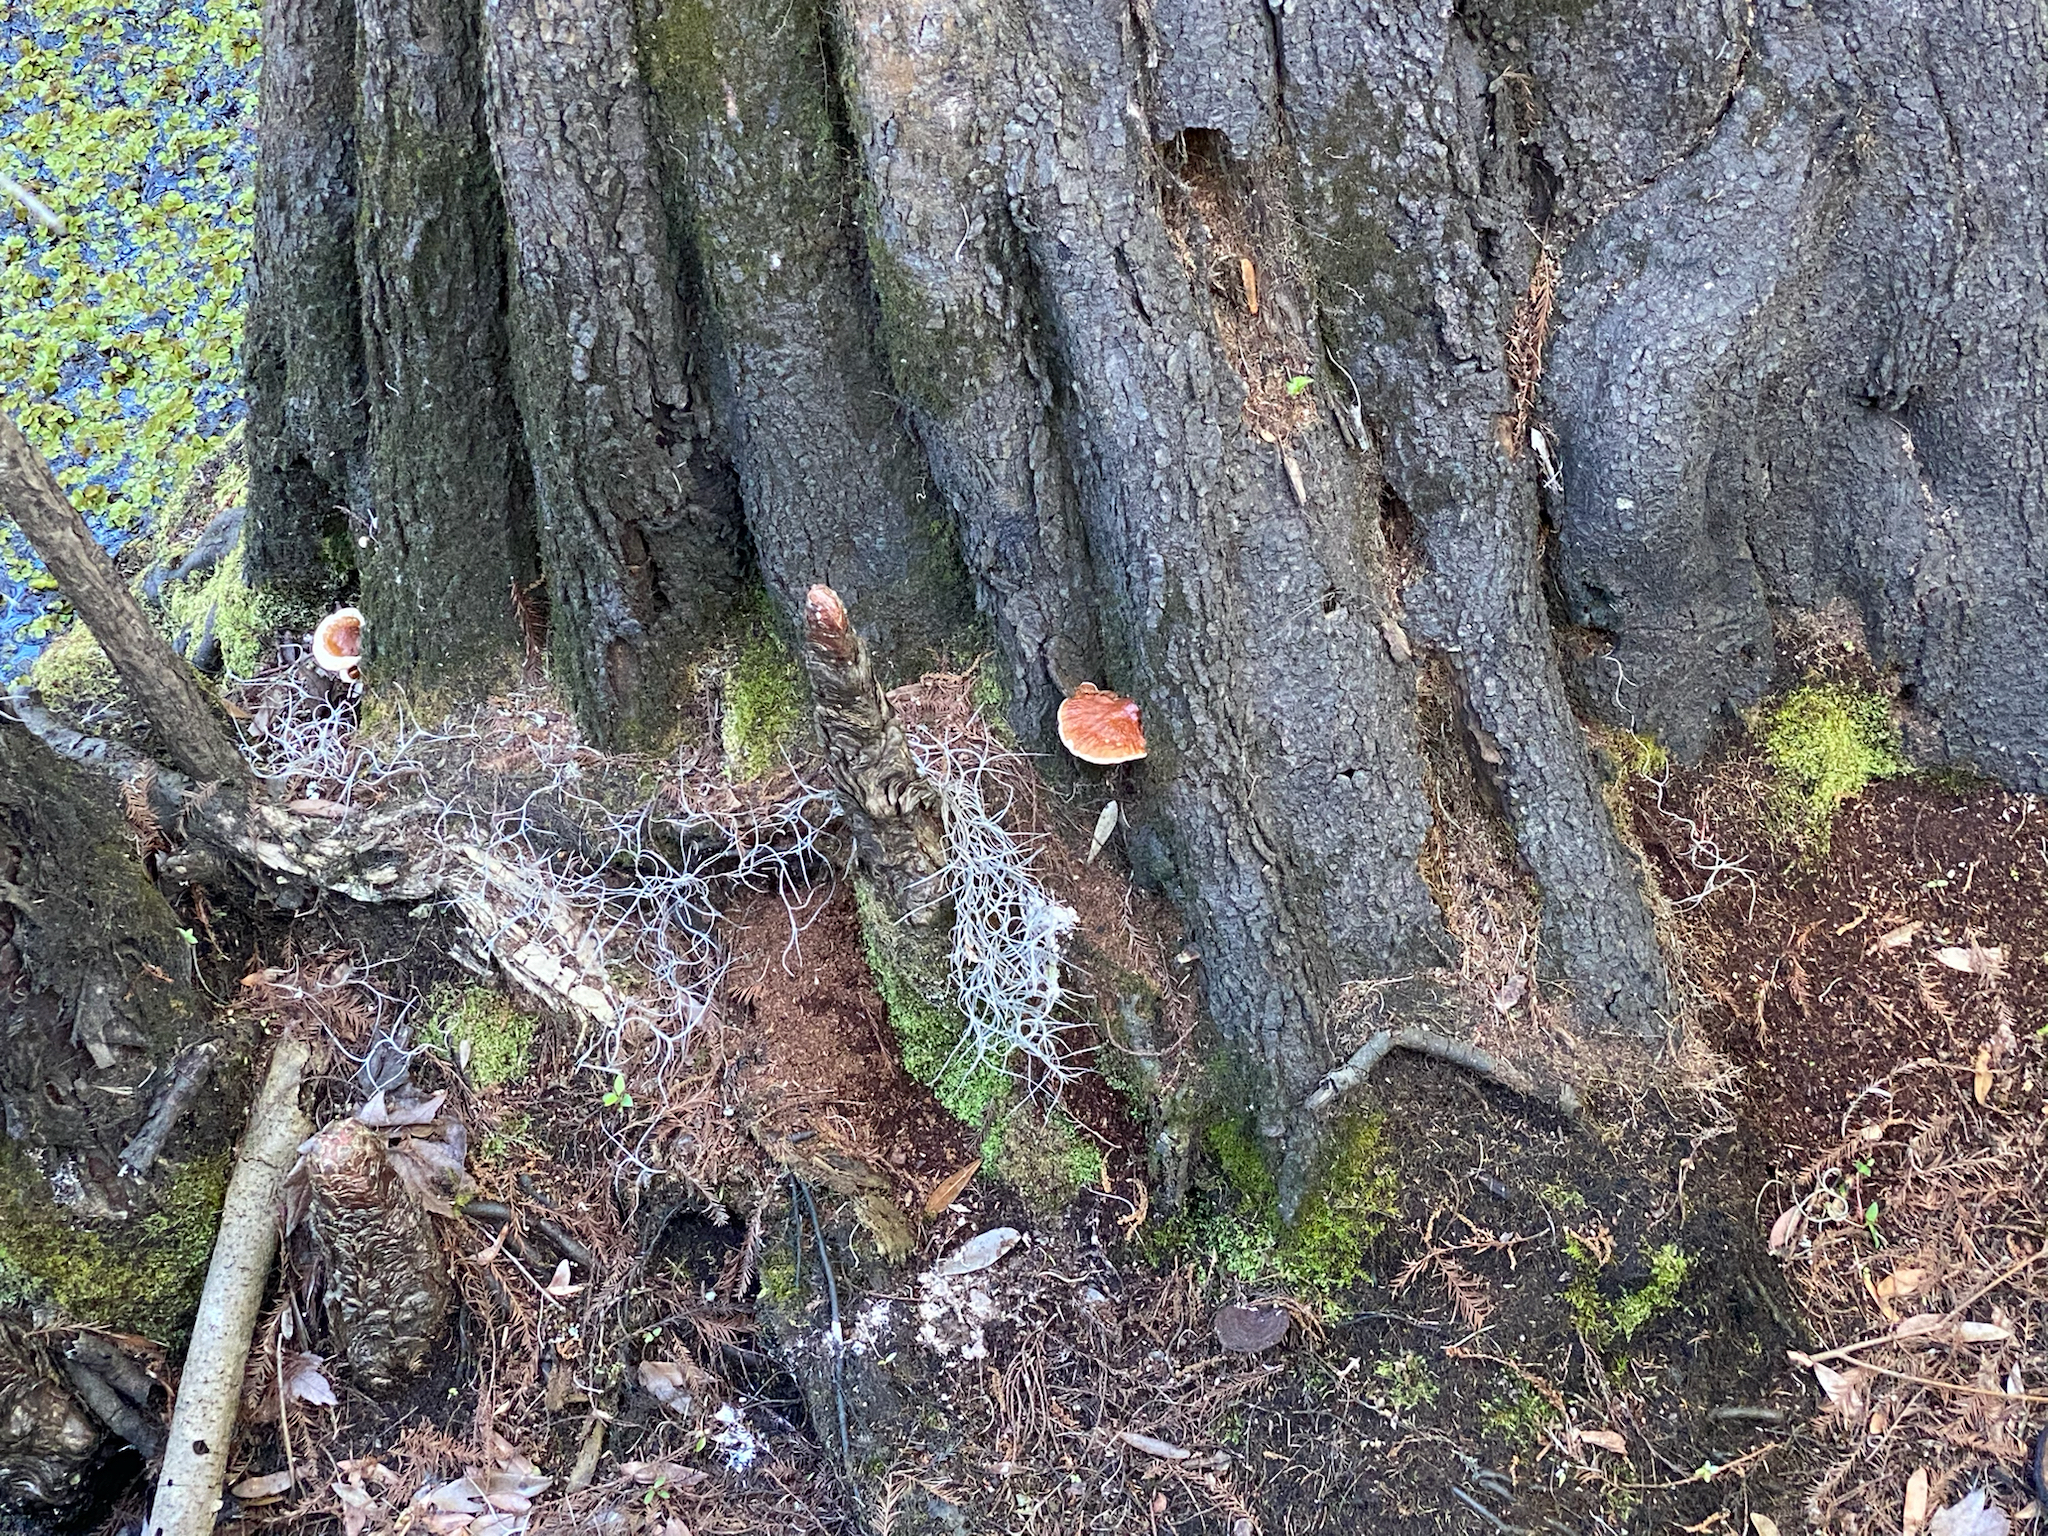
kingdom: Fungi
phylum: Basidiomycota
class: Agaricomycetes
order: Polyporales
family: Polyporaceae
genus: Ganoderma
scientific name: Ganoderma resinaceum
